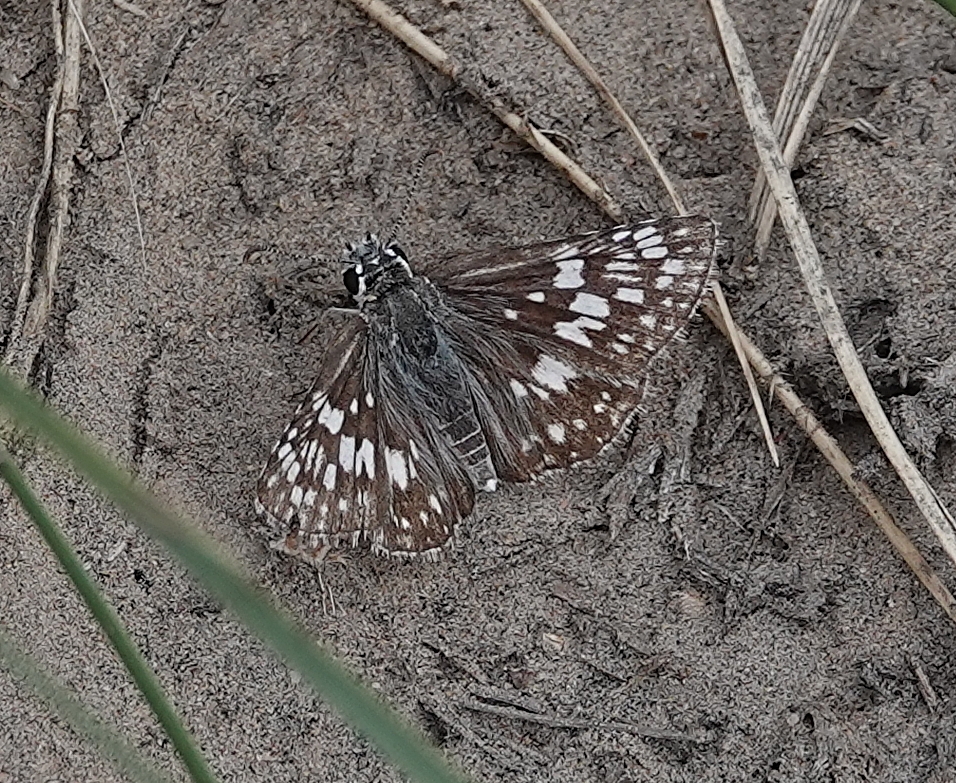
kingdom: Animalia
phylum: Arthropoda
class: Insecta
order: Lepidoptera
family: Hesperiidae
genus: Burnsius
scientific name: Burnsius communis
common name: Common checkered-skipper
